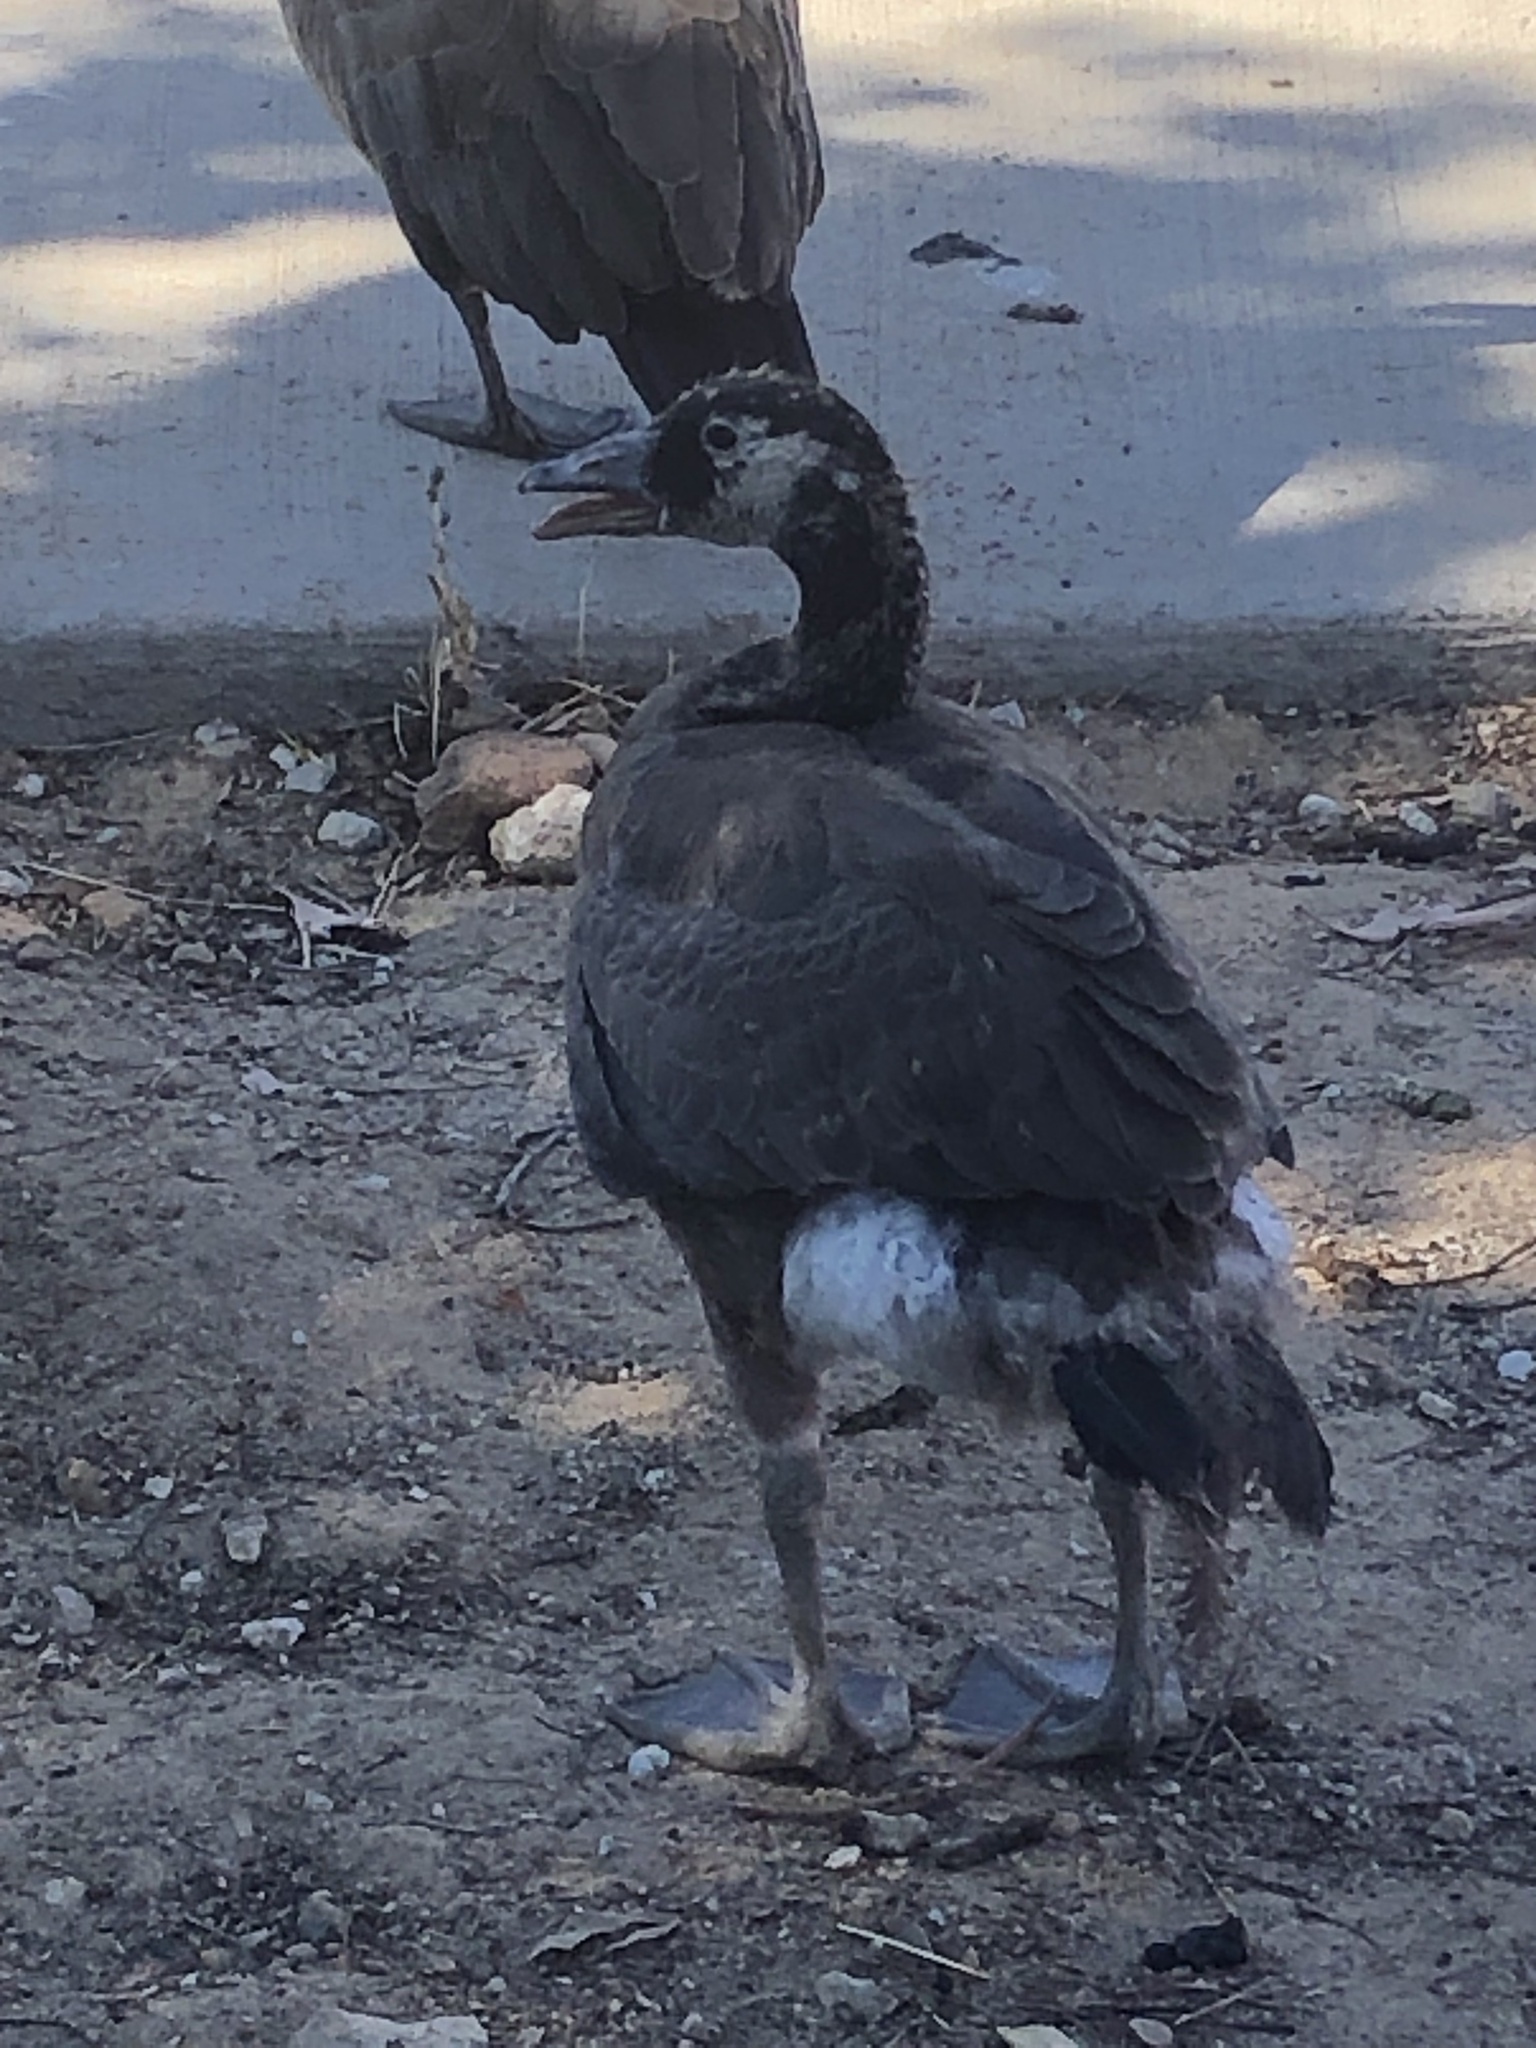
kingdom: Animalia
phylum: Chordata
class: Aves
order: Anseriformes
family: Anatidae
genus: Branta
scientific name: Branta canadensis
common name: Canada goose
